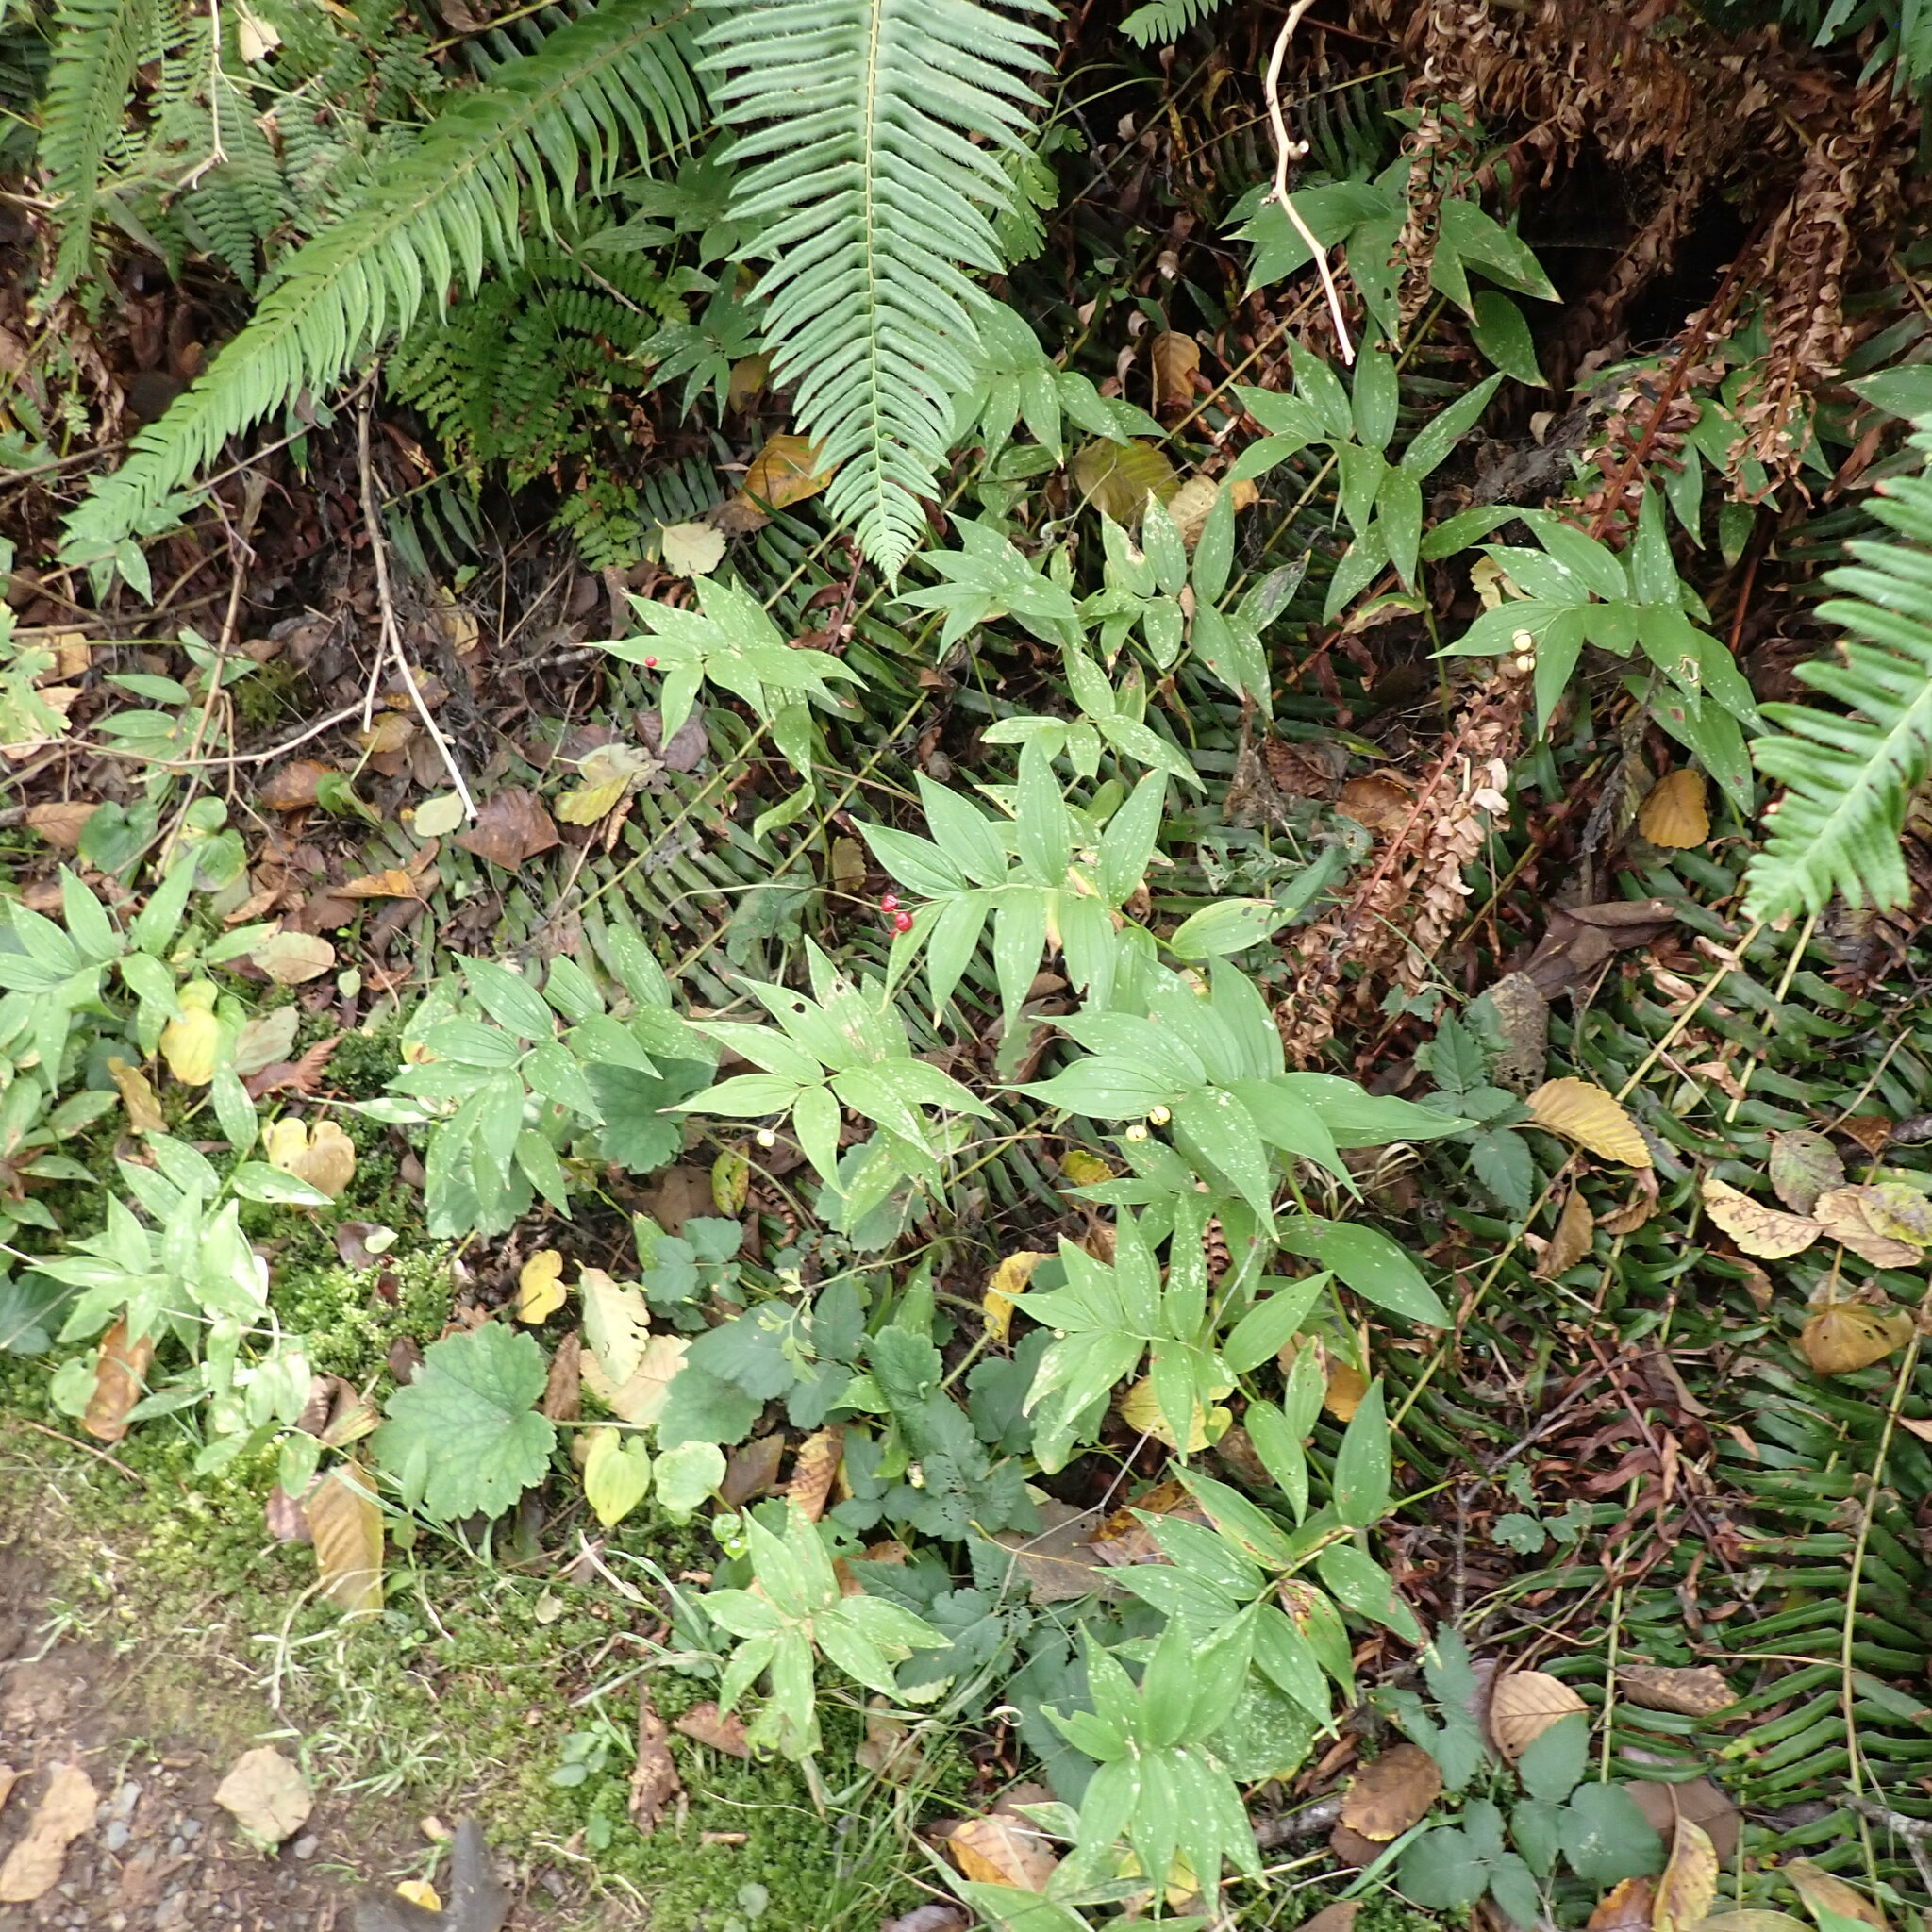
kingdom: Plantae
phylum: Tracheophyta
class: Liliopsida
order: Asparagales
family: Asparagaceae
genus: Maianthemum
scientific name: Maianthemum stellatum
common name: Little false solomon's seal
